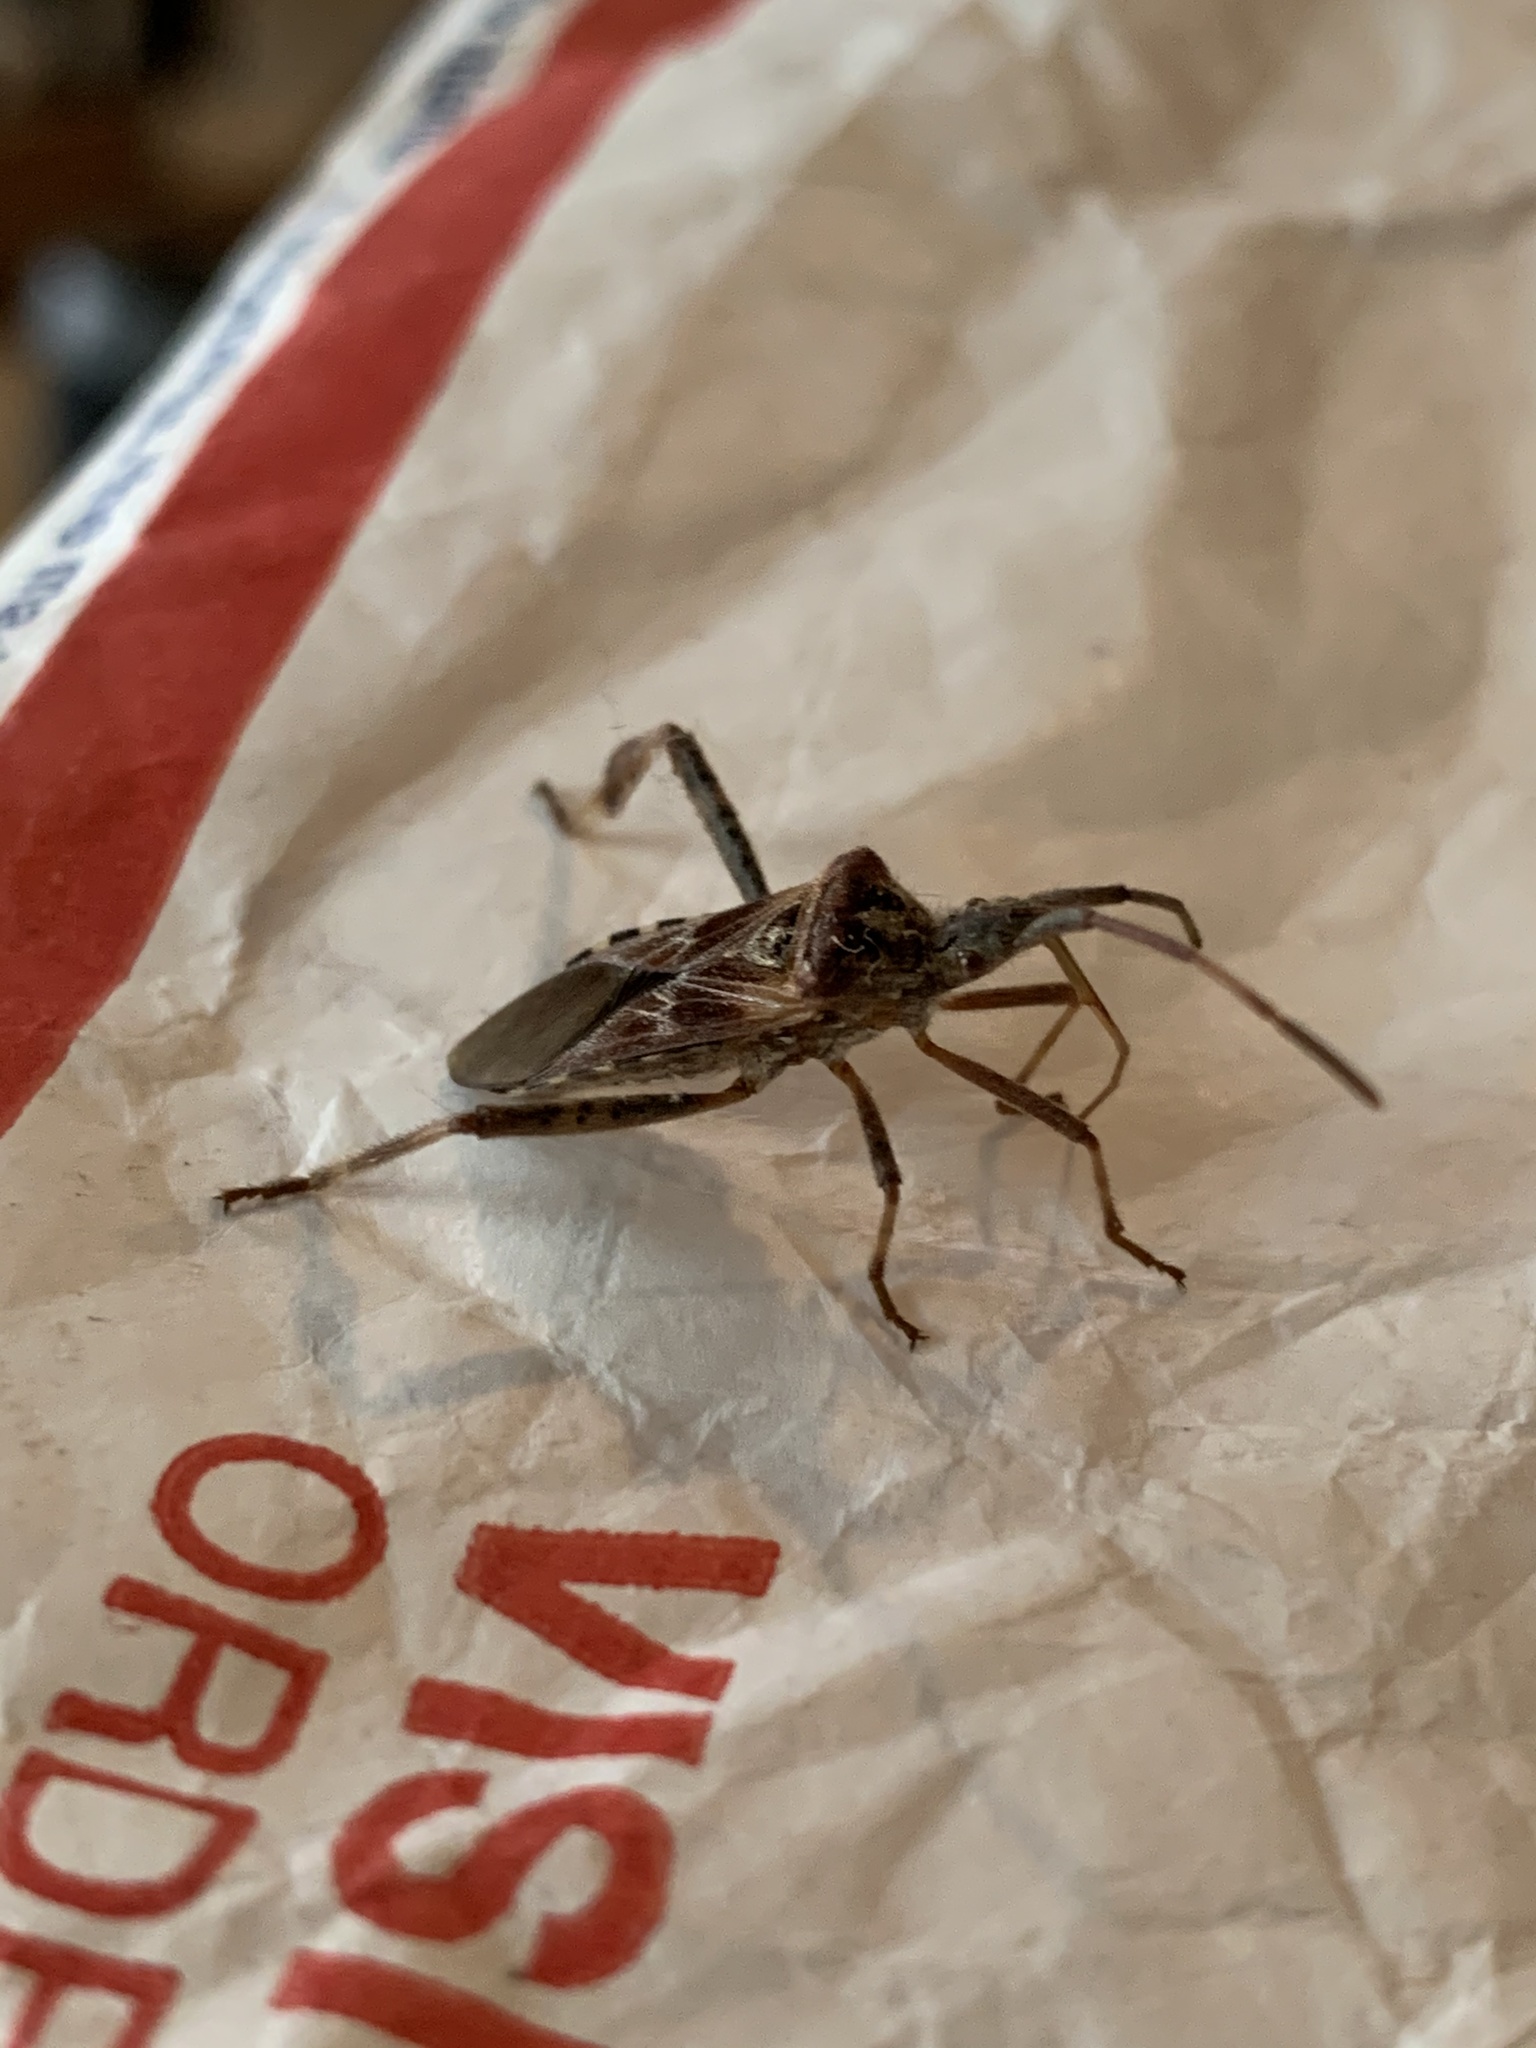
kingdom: Animalia
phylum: Arthropoda
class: Insecta
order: Hemiptera
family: Coreidae
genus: Leptoglossus
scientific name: Leptoglossus occidentalis
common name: Western conifer-seed bug
